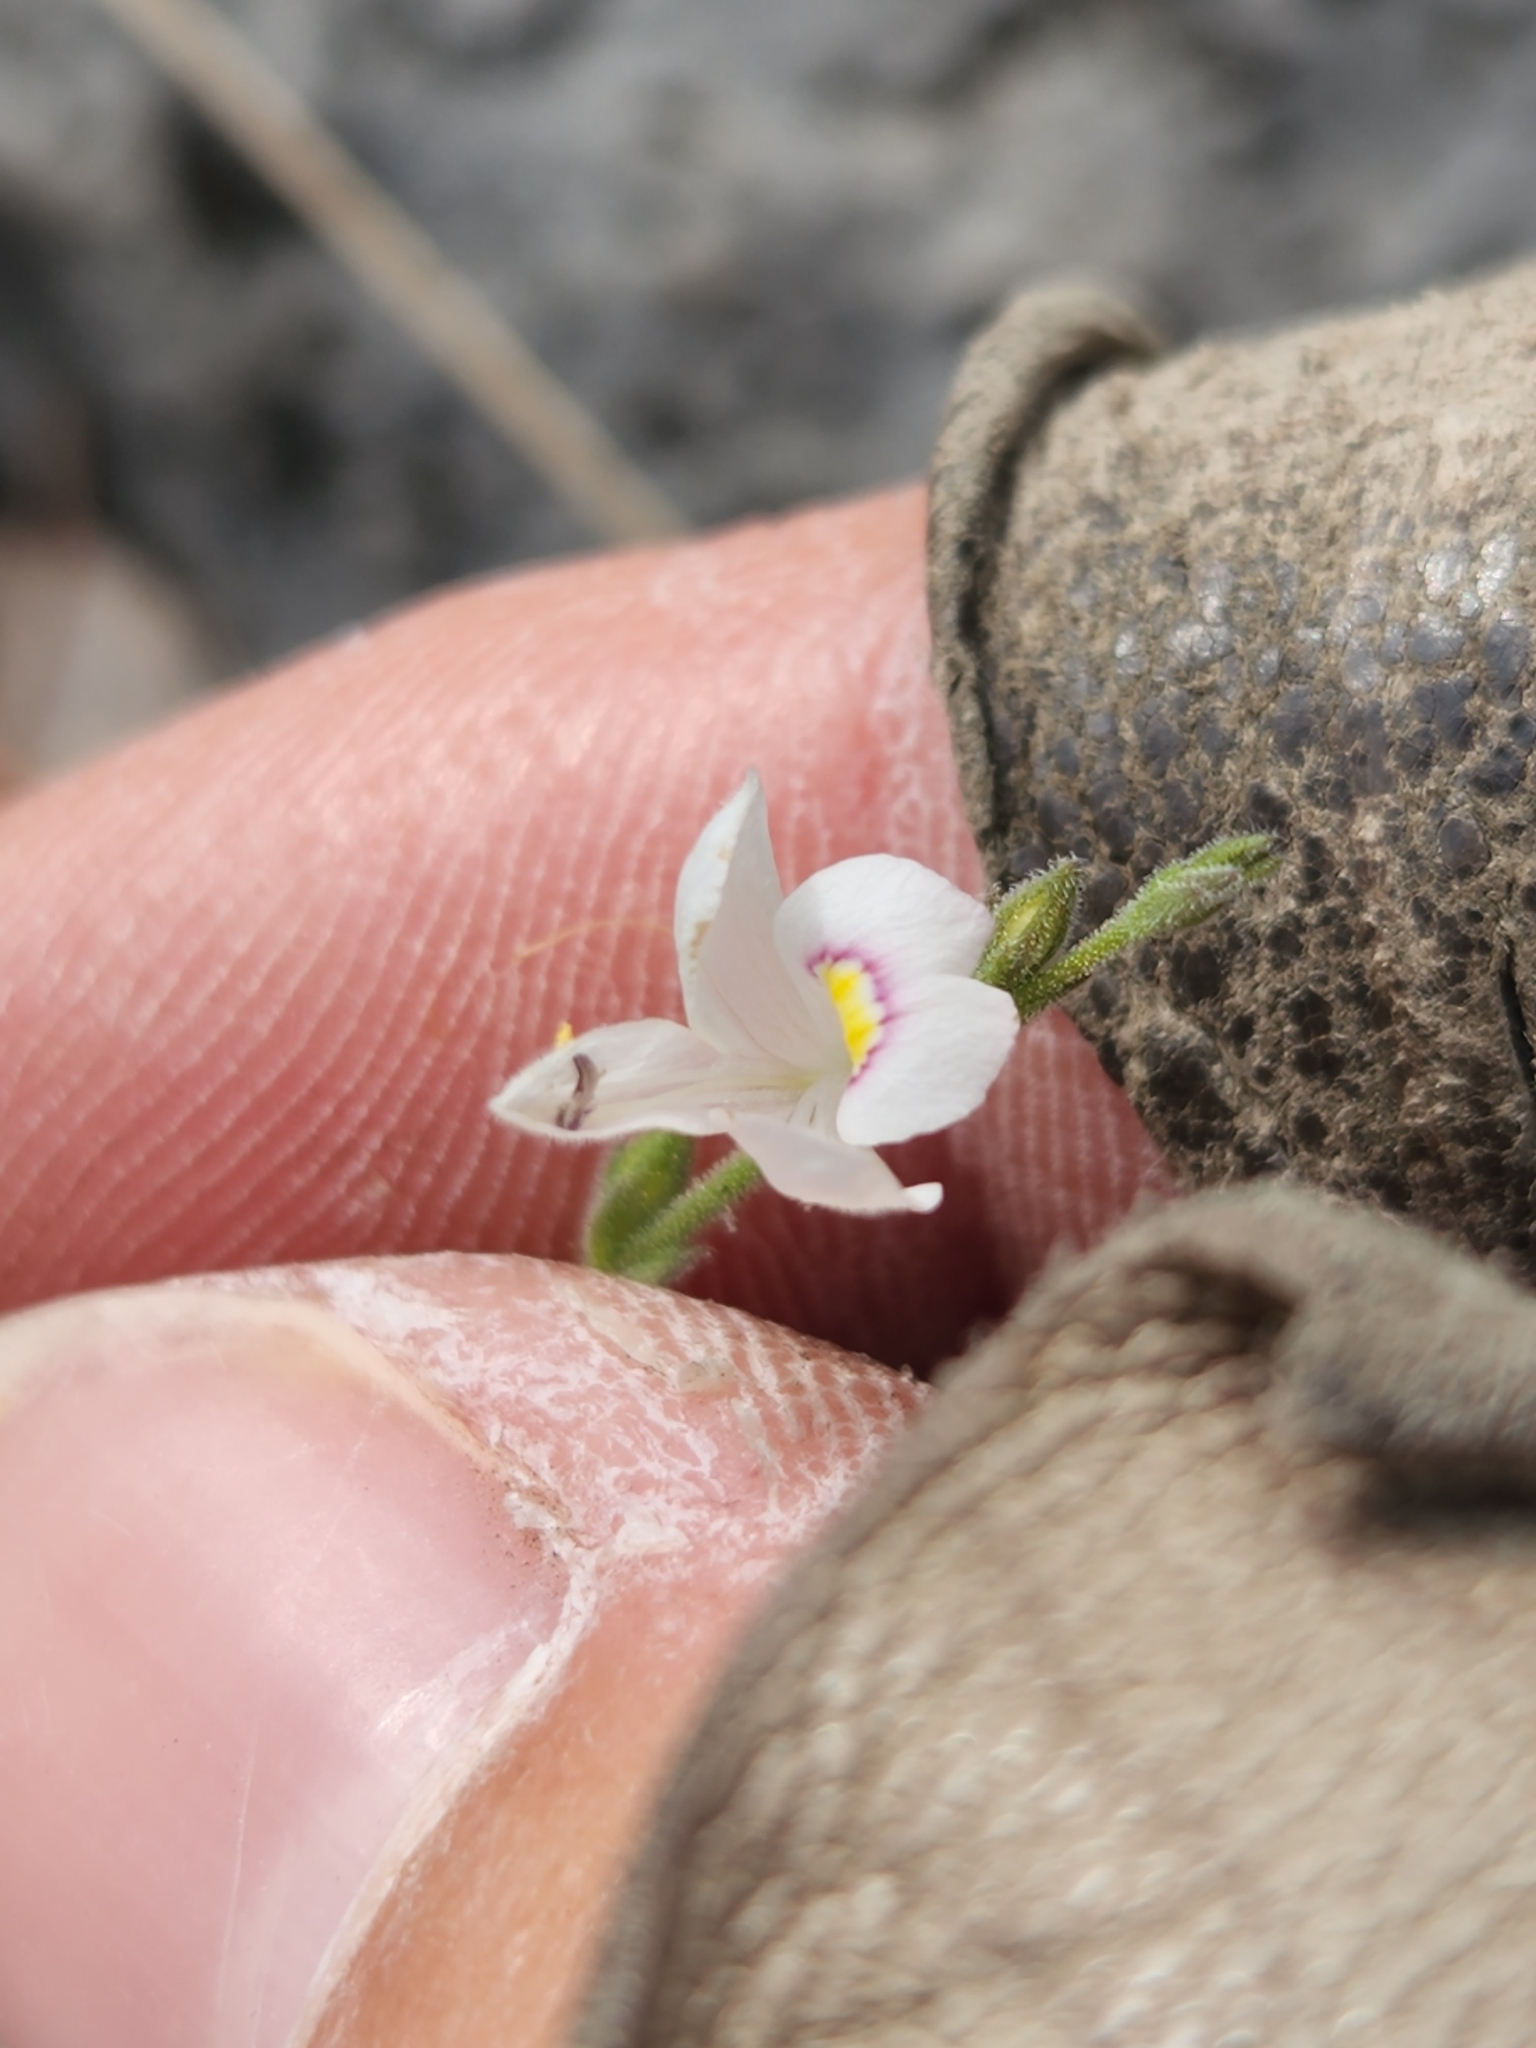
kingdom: Plantae
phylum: Tracheophyta
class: Magnoliopsida
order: Lamiales
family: Acanthaceae
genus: Carlowrightia
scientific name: Carlowrightia torreyana
